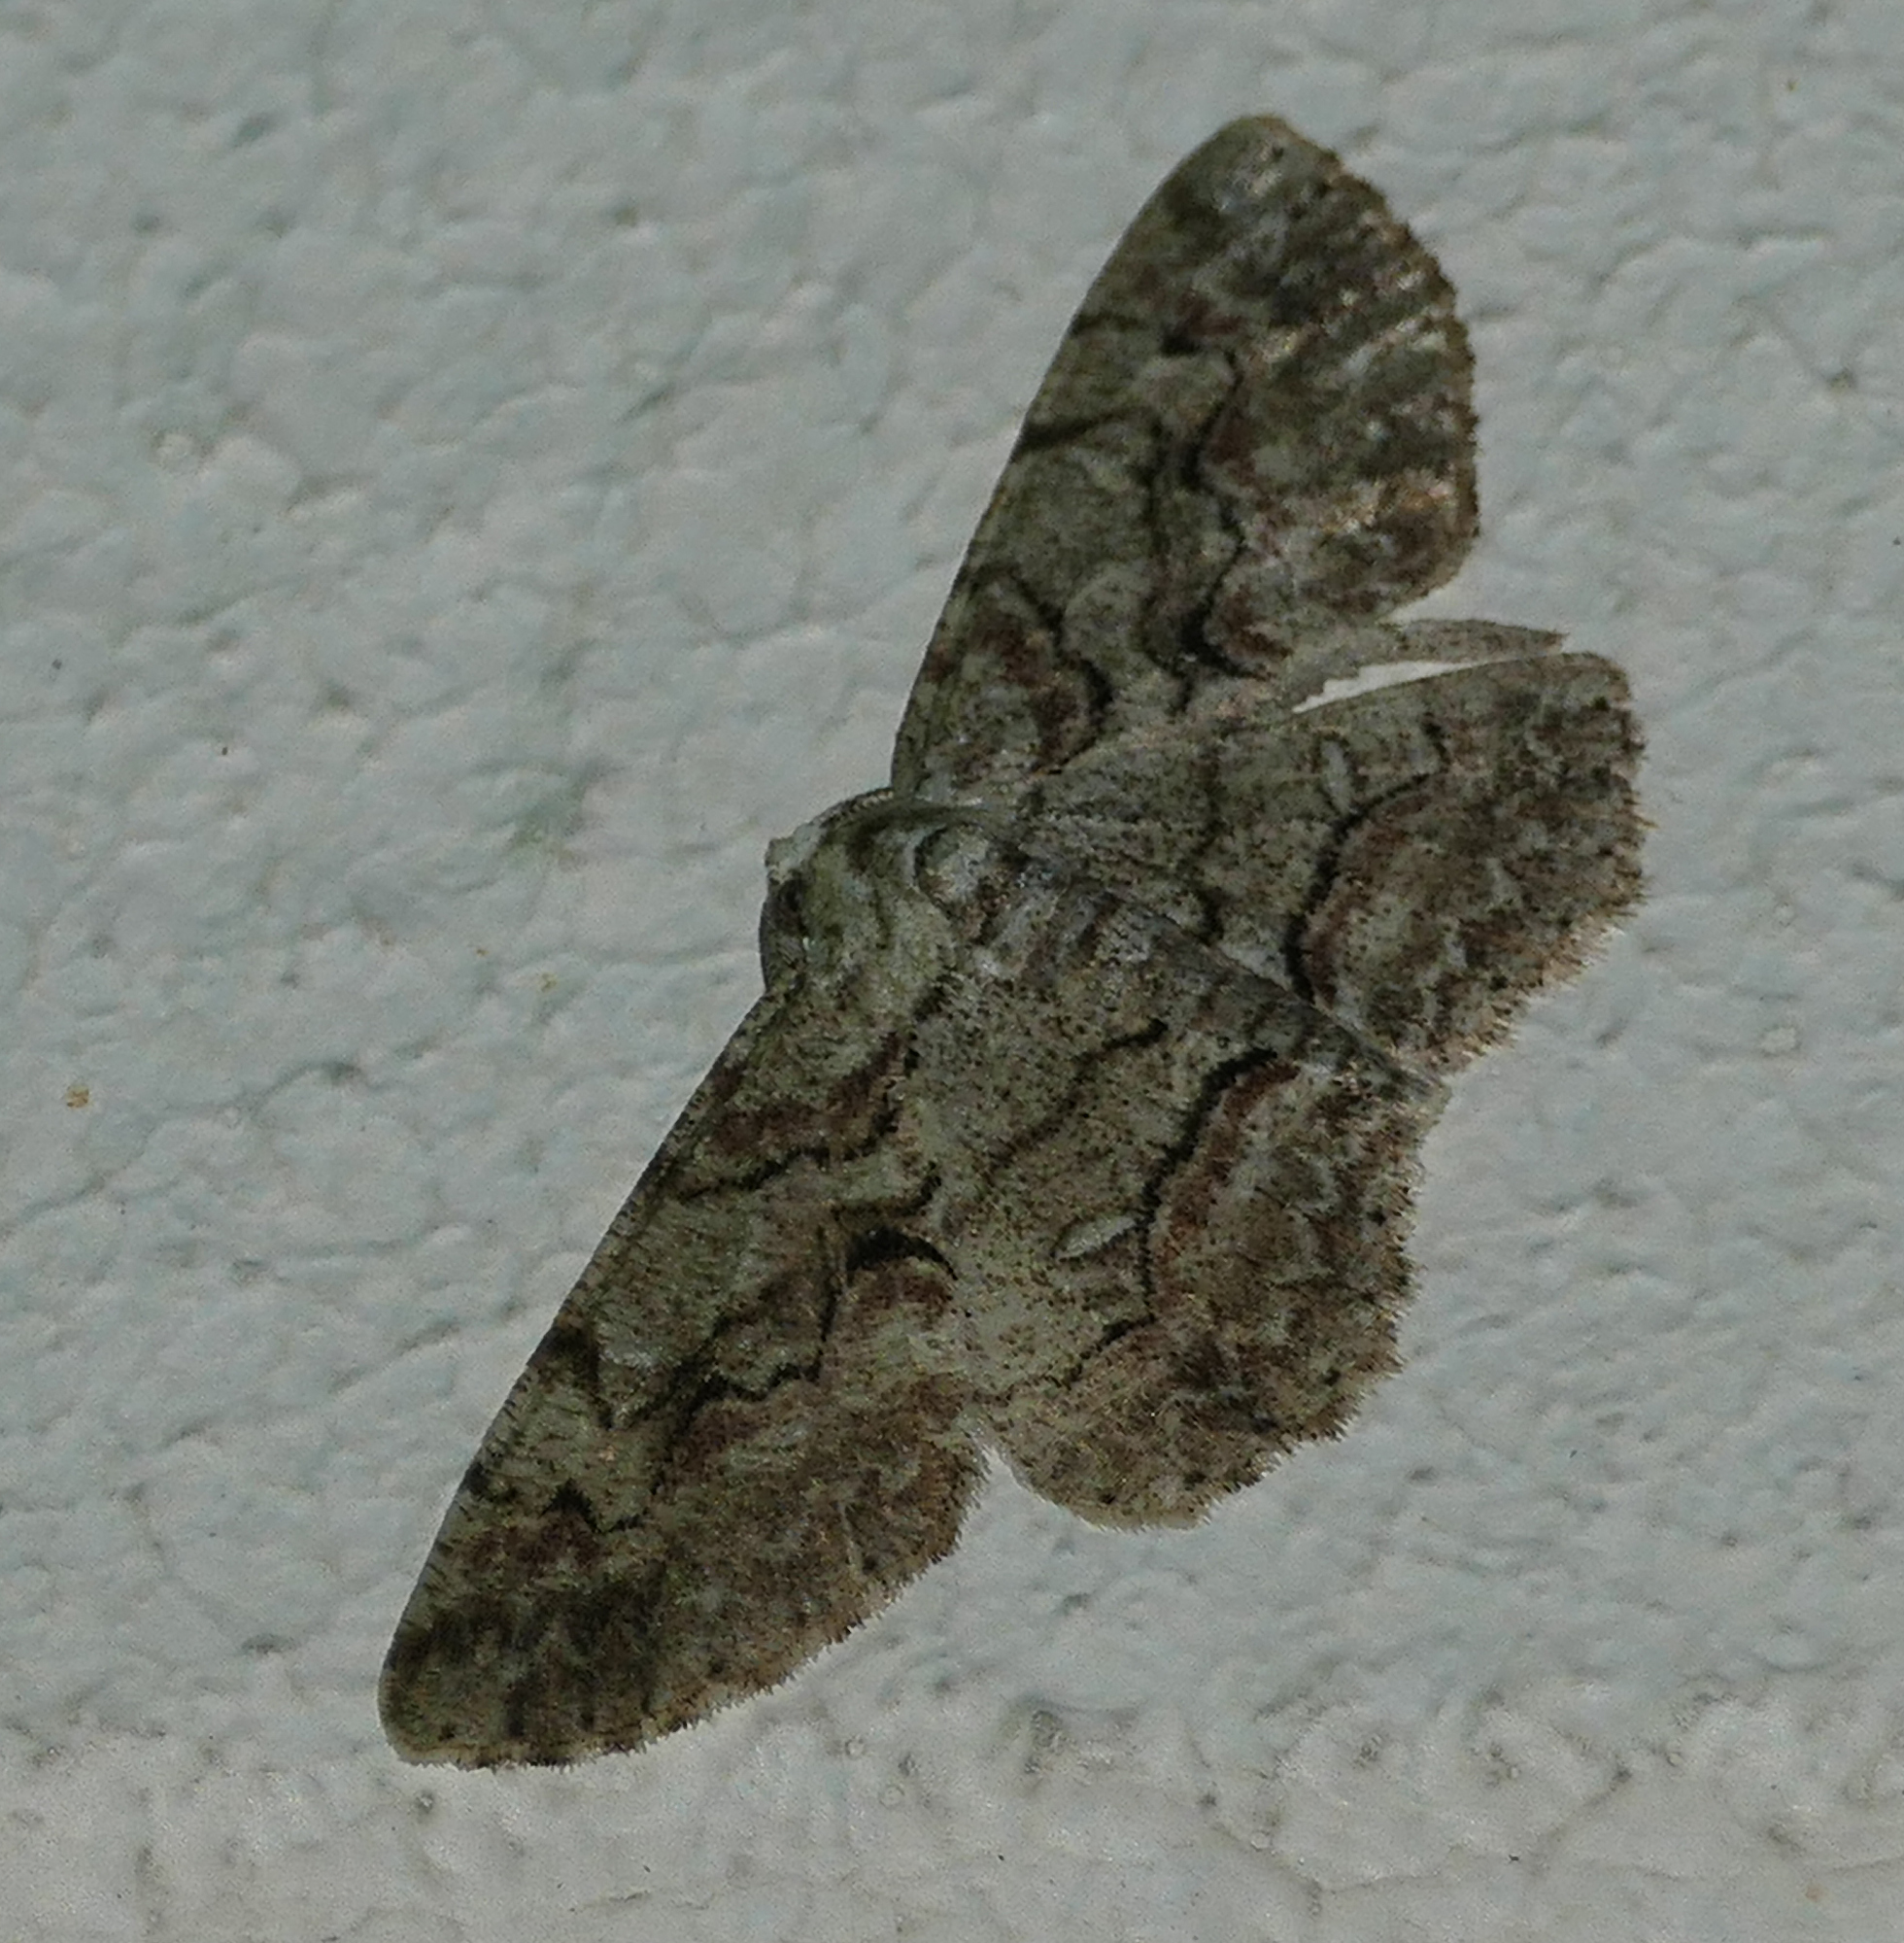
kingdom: Animalia
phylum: Arthropoda
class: Insecta
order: Lepidoptera
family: Geometridae
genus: Iridopsis
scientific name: Iridopsis defectaria
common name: Brown-shaded gray
